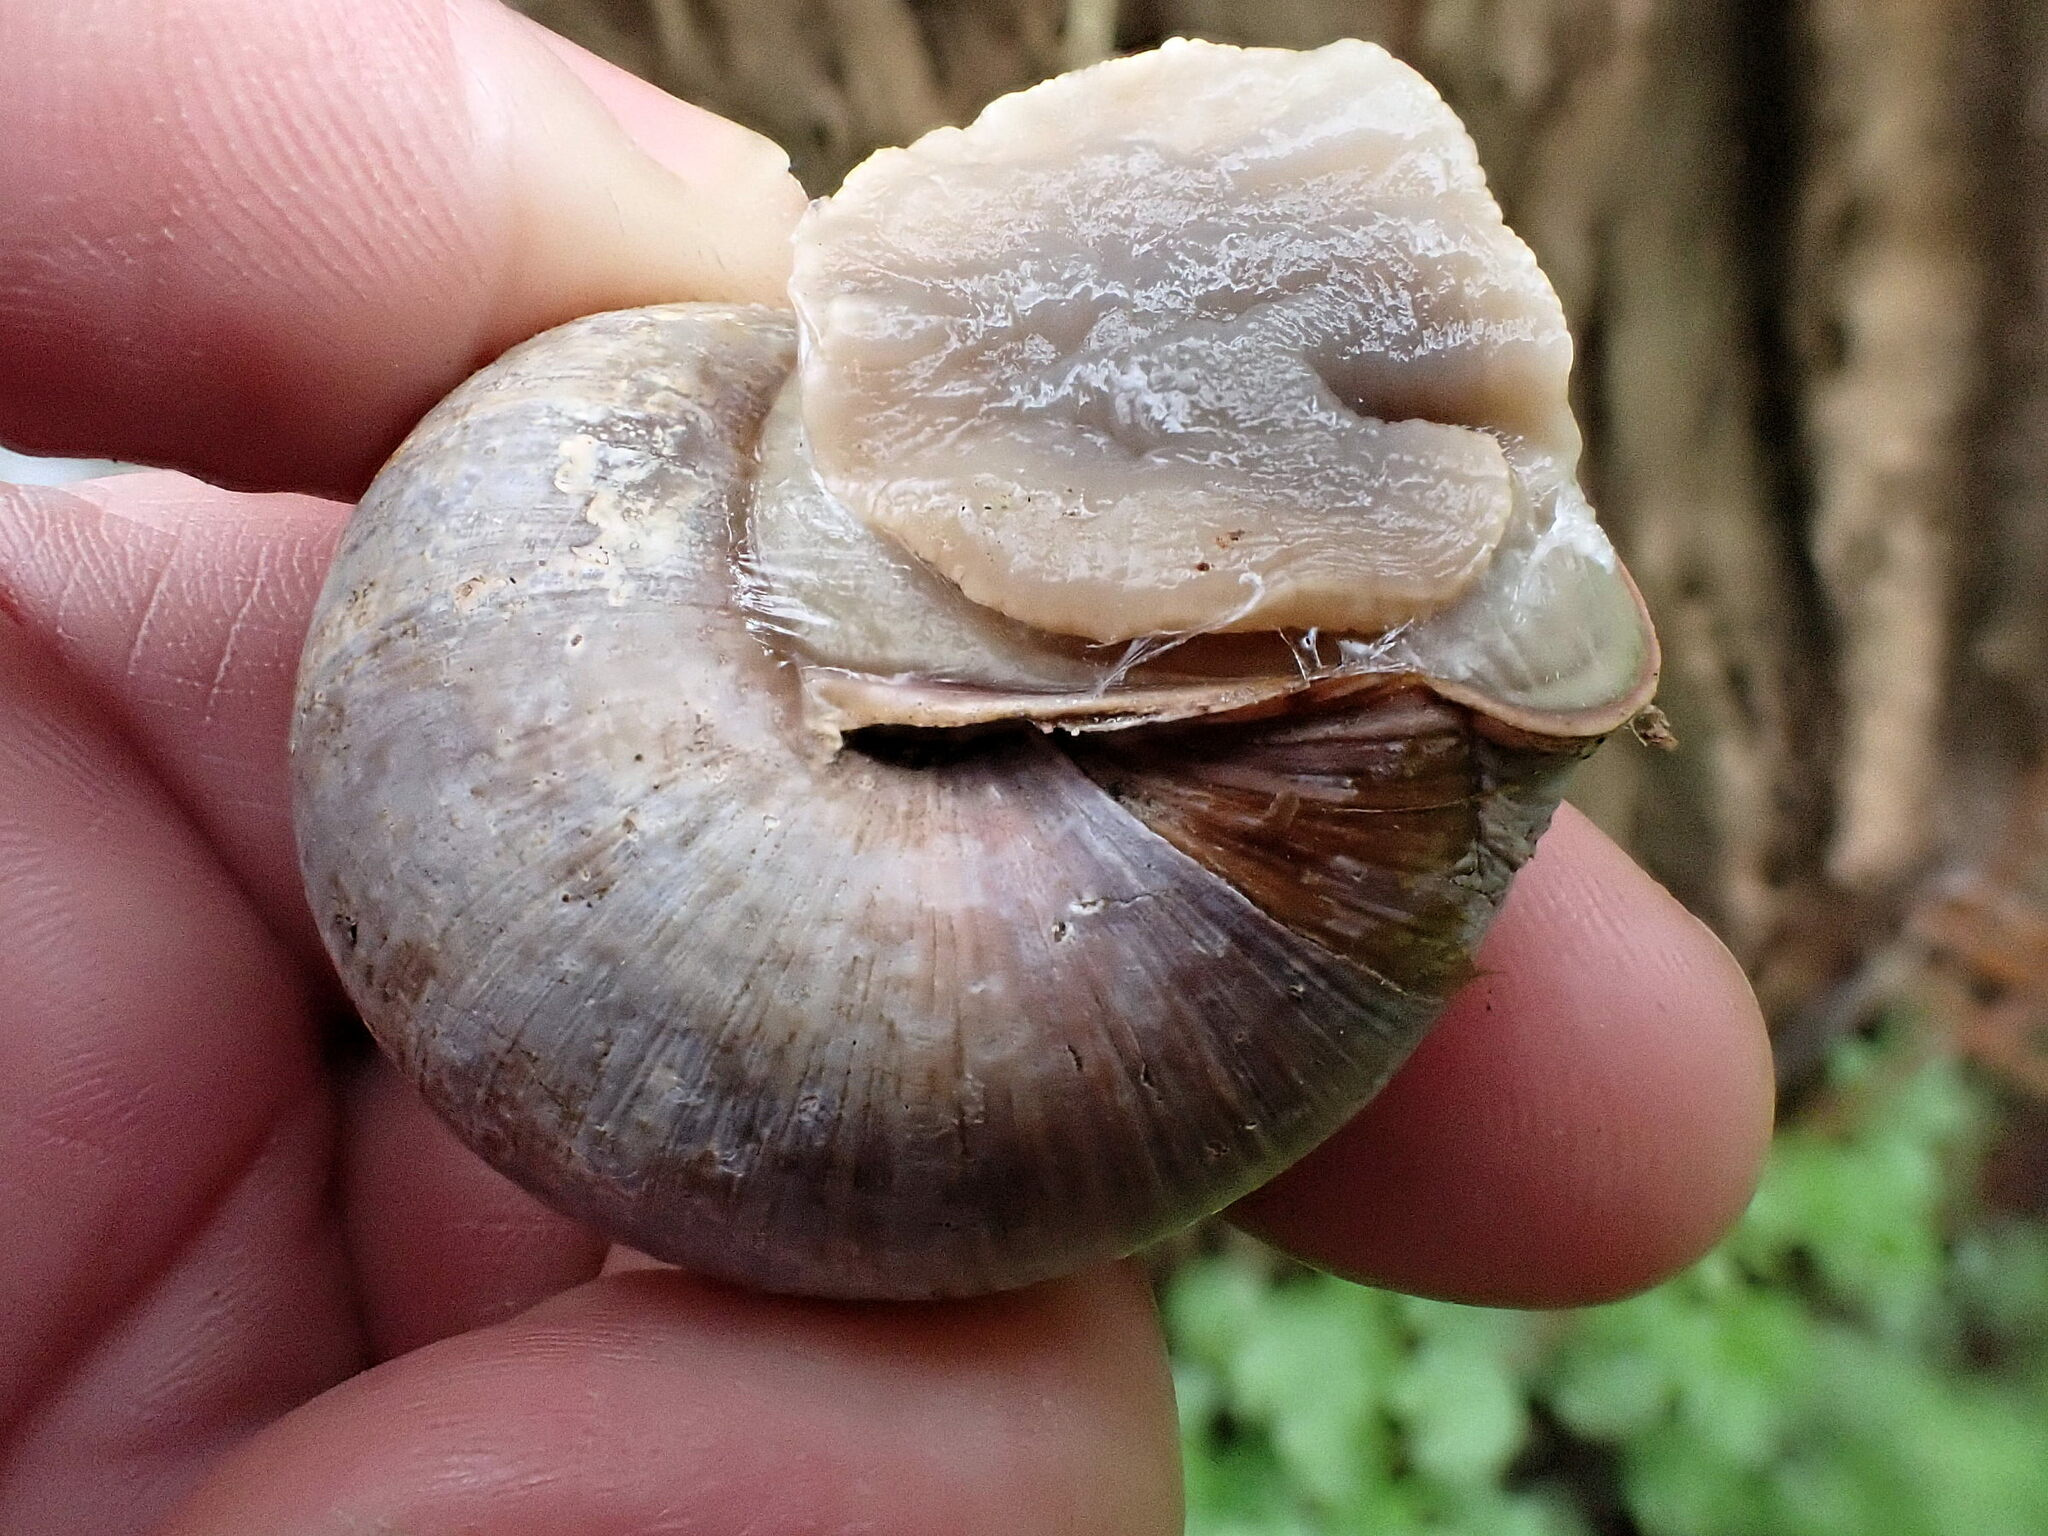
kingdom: Animalia
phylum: Mollusca
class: Gastropoda
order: Stylommatophora
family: Helicidae
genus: Helix
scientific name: Helix pomatia
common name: Roman snail
